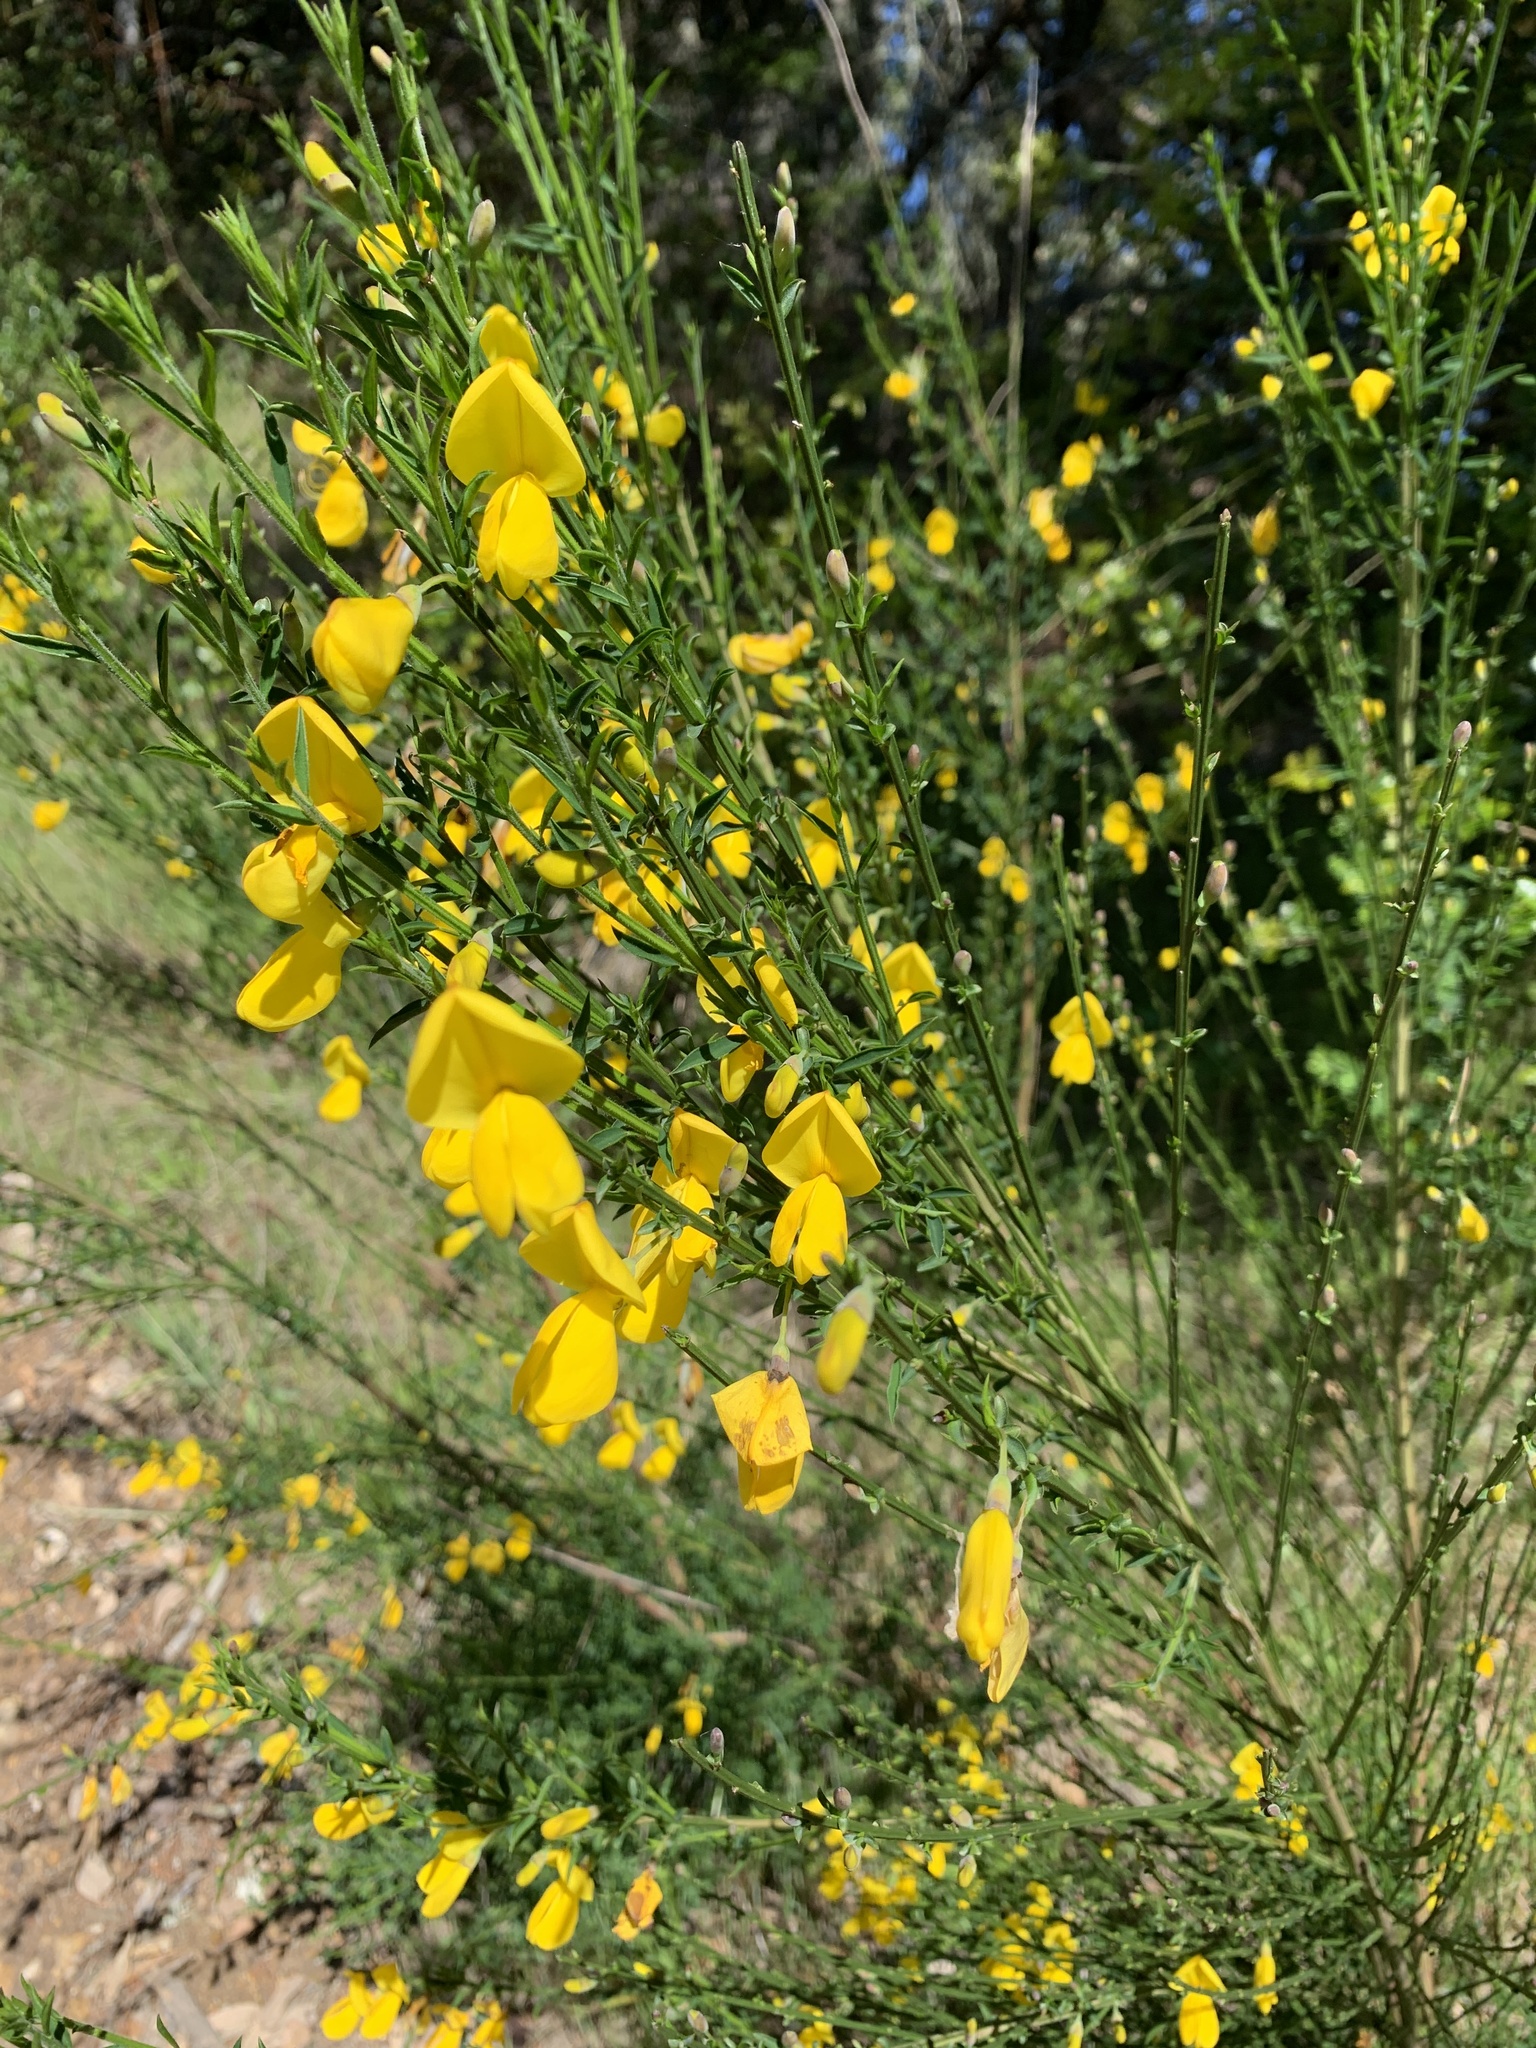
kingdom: Plantae
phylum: Tracheophyta
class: Magnoliopsida
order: Fabales
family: Fabaceae
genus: Cytisus
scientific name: Cytisus scoparius
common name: Scotch broom
